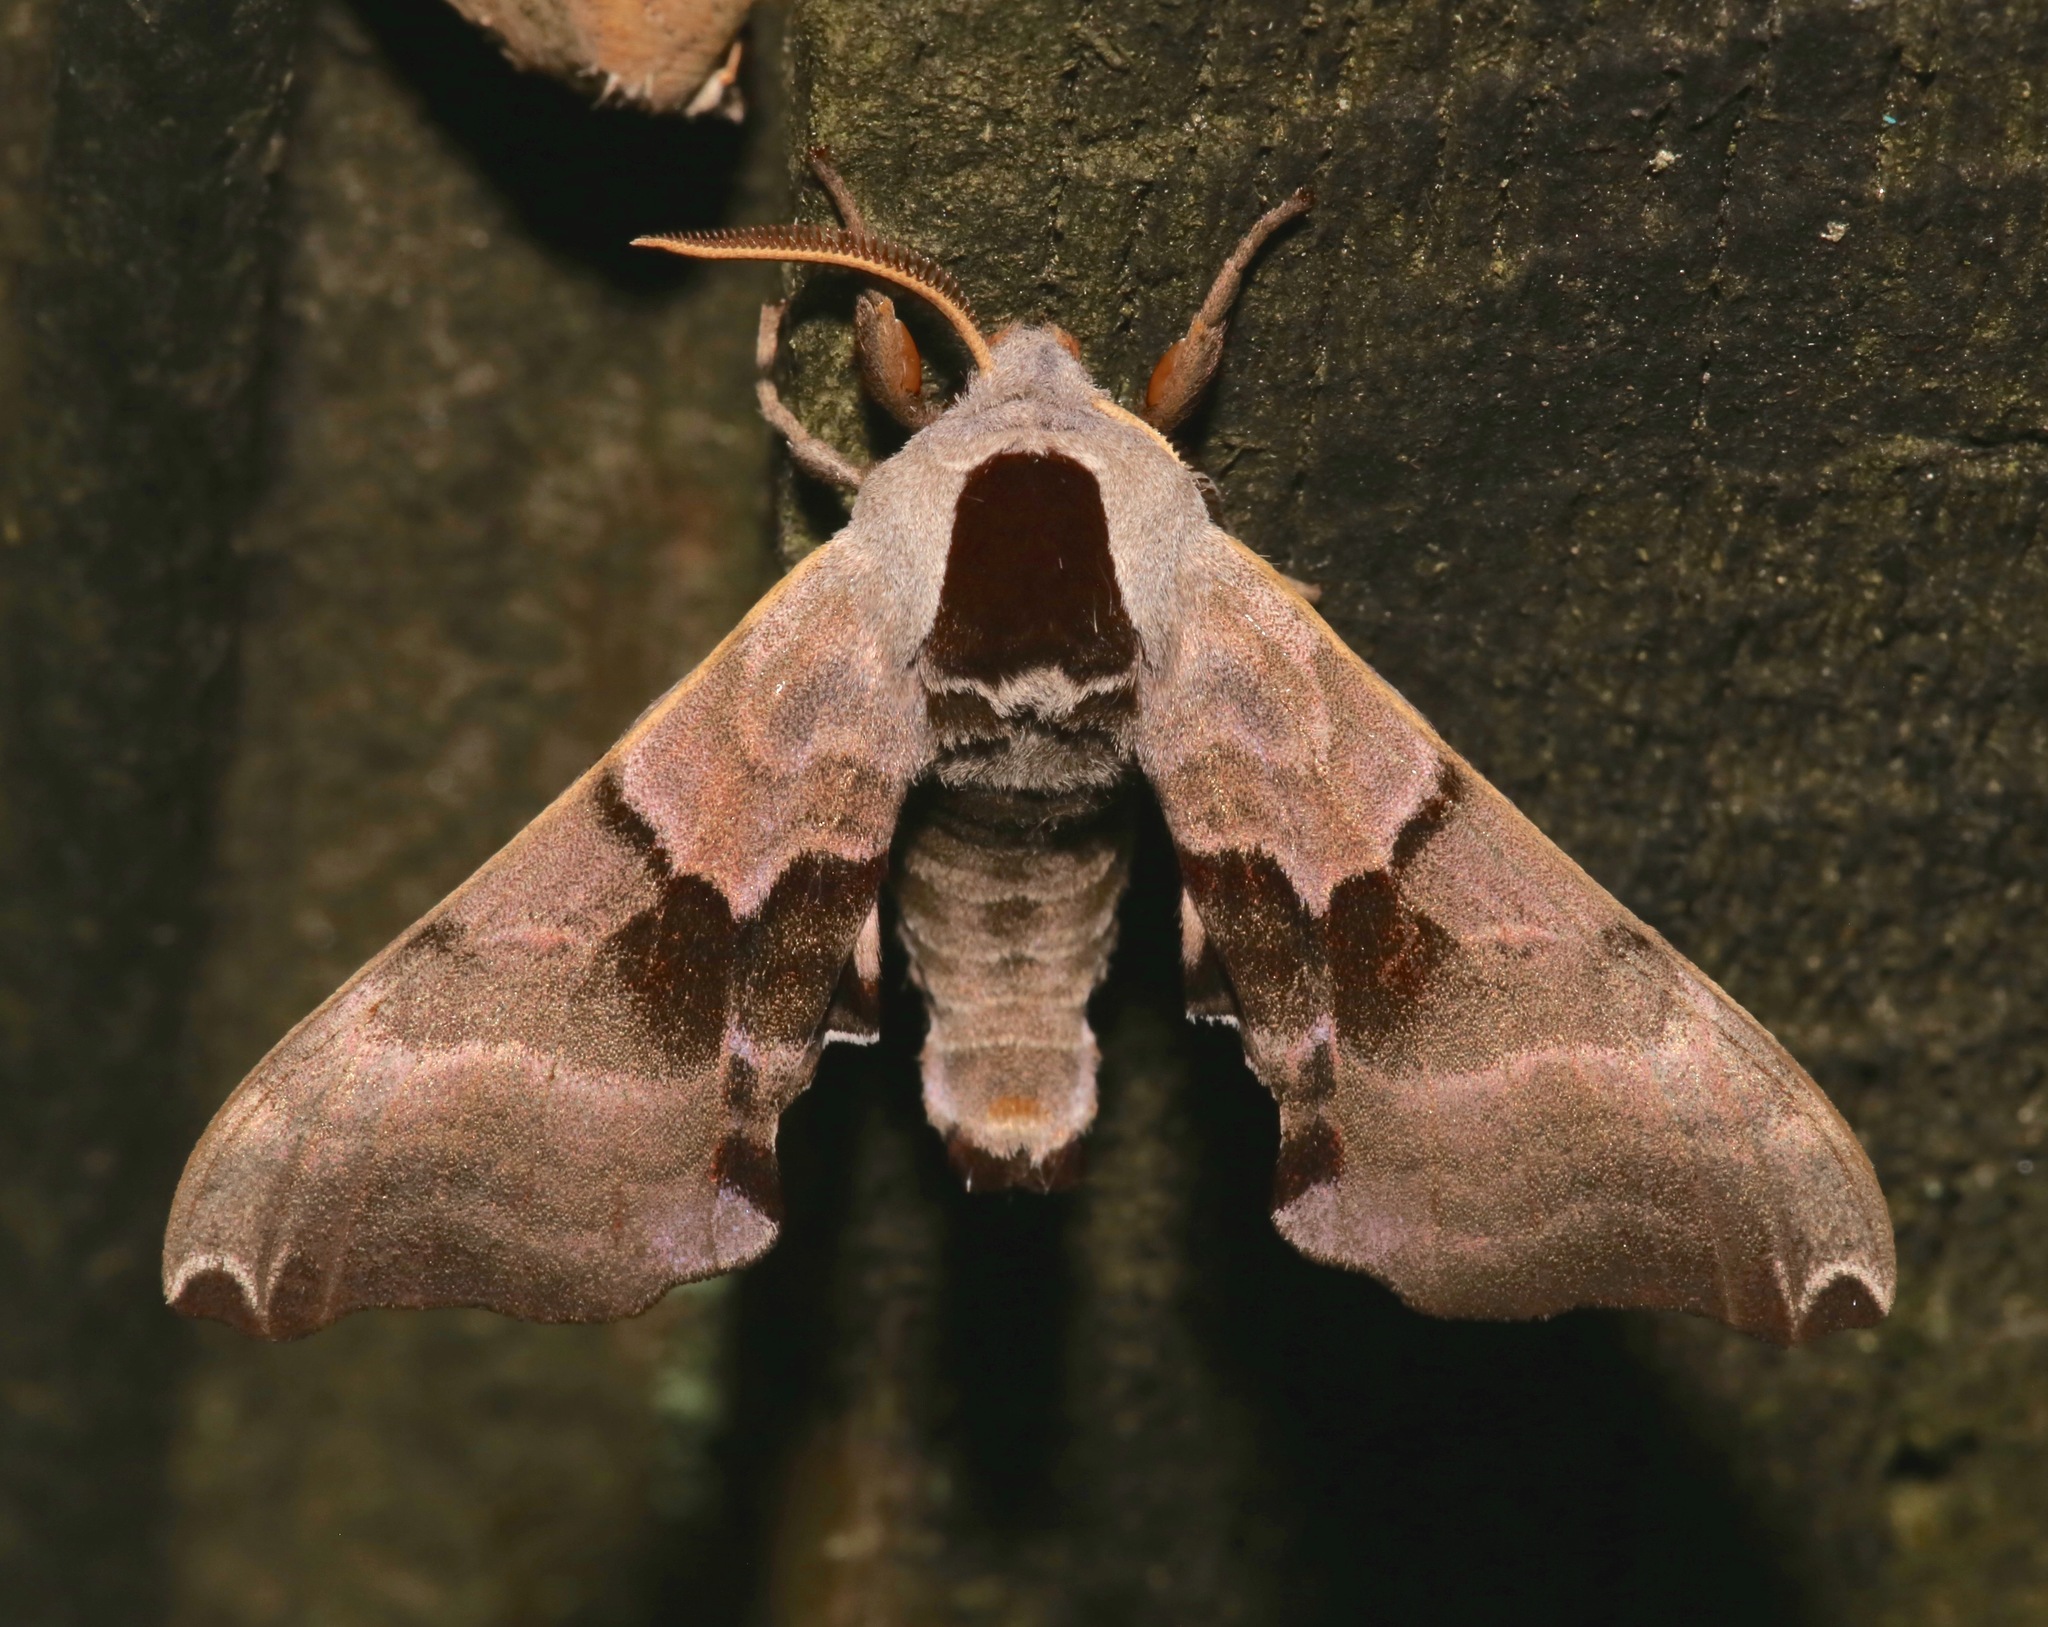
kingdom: Animalia
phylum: Arthropoda
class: Insecta
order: Lepidoptera
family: Sphingidae
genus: Smerinthus
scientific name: Smerinthus jamaicensis
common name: Twin spotted sphinx
